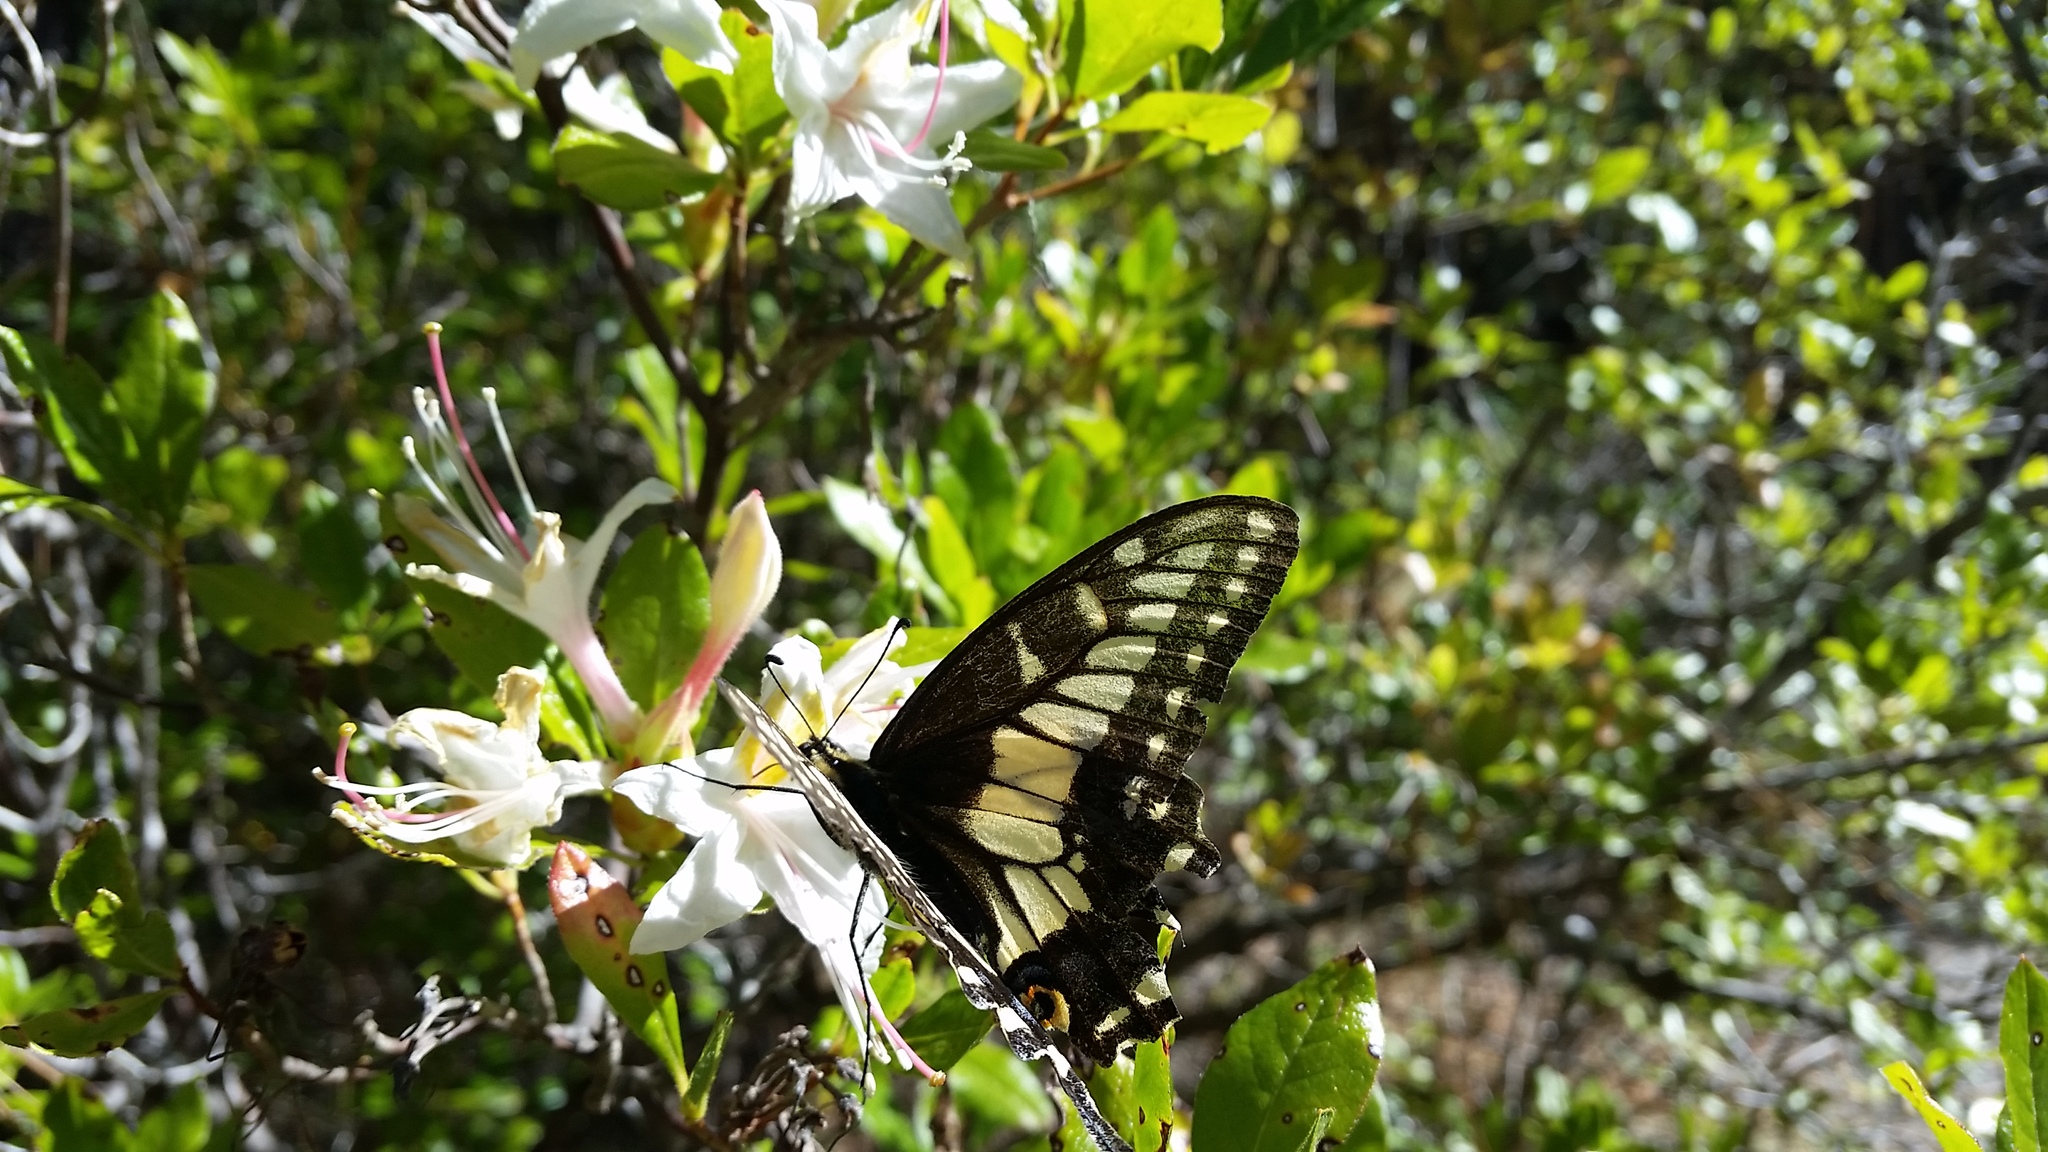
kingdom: Animalia
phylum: Arthropoda
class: Insecta
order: Lepidoptera
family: Papilionidae
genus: Papilio
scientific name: Papilio zelicaon
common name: Anise swallowtail
